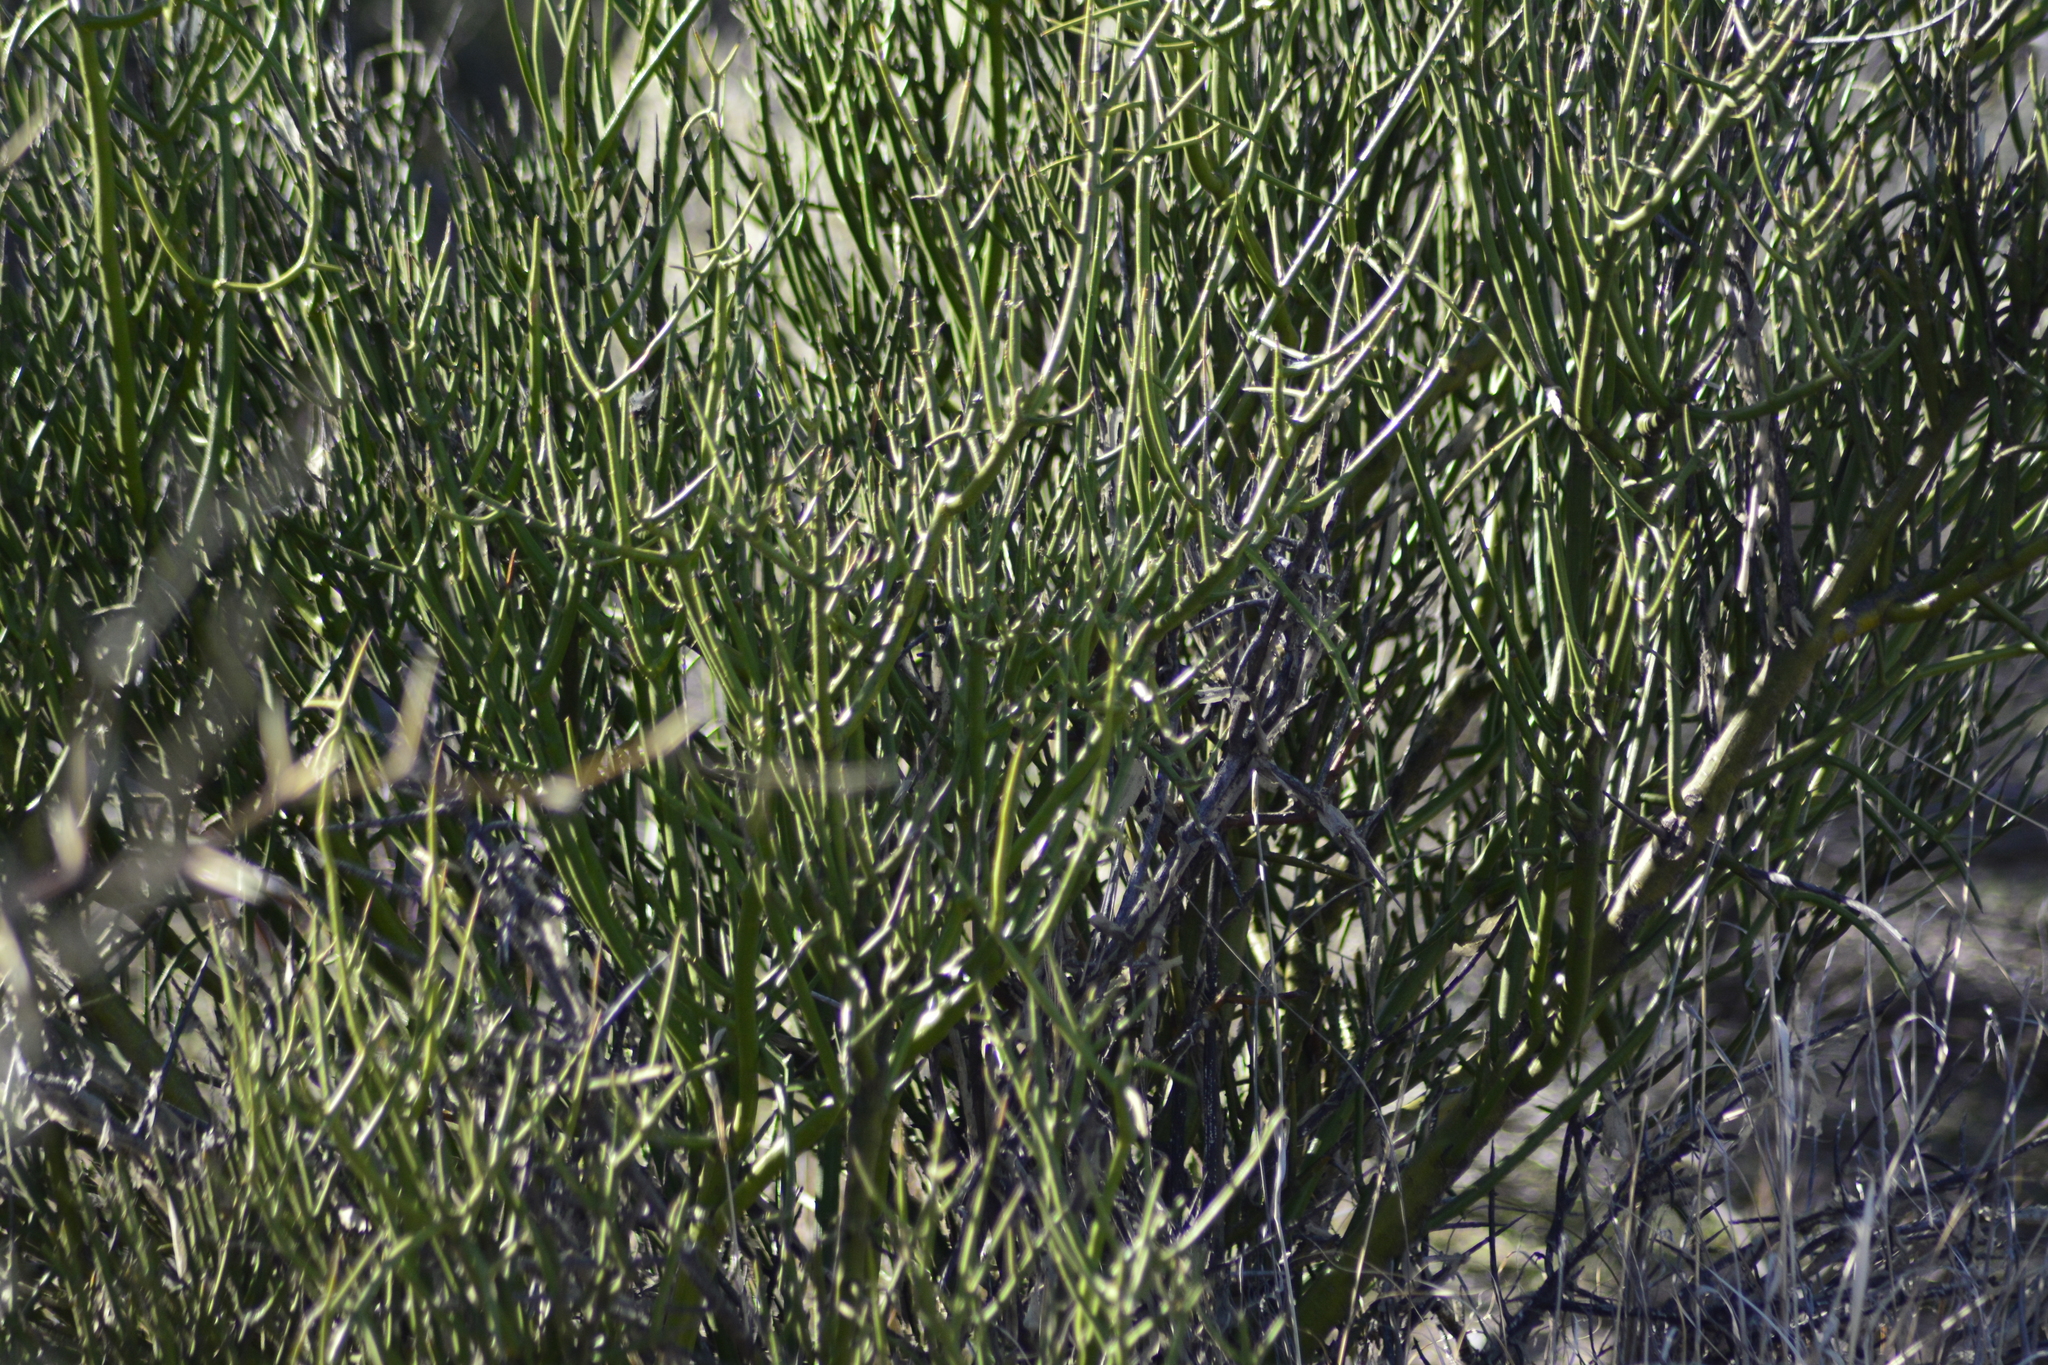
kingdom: Plantae
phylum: Tracheophyta
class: Magnoliopsida
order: Lamiales
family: Plantaginaceae
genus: Monttea
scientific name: Monttea aphylla
